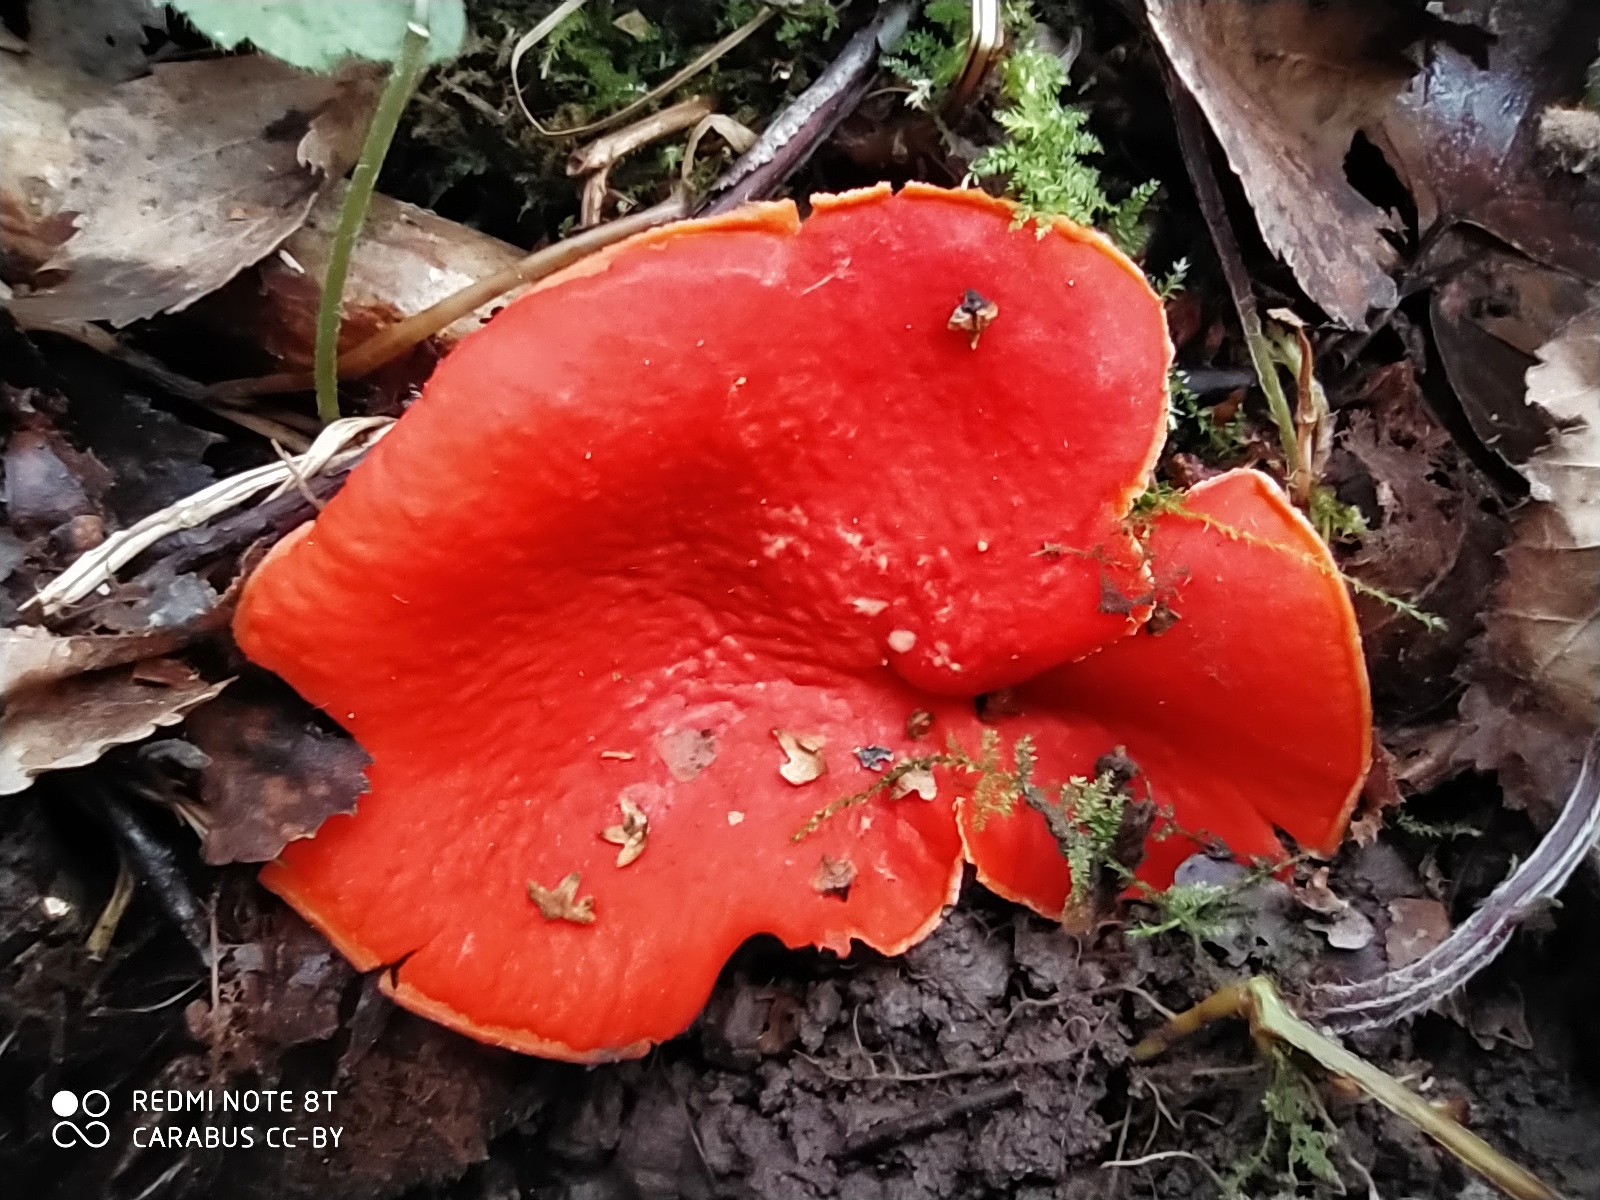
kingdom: Fungi
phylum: Ascomycota
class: Pezizomycetes
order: Pezizales
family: Sarcoscyphaceae
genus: Sarcoscypha
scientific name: Sarcoscypha austriaca
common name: Scarlet elfcup
